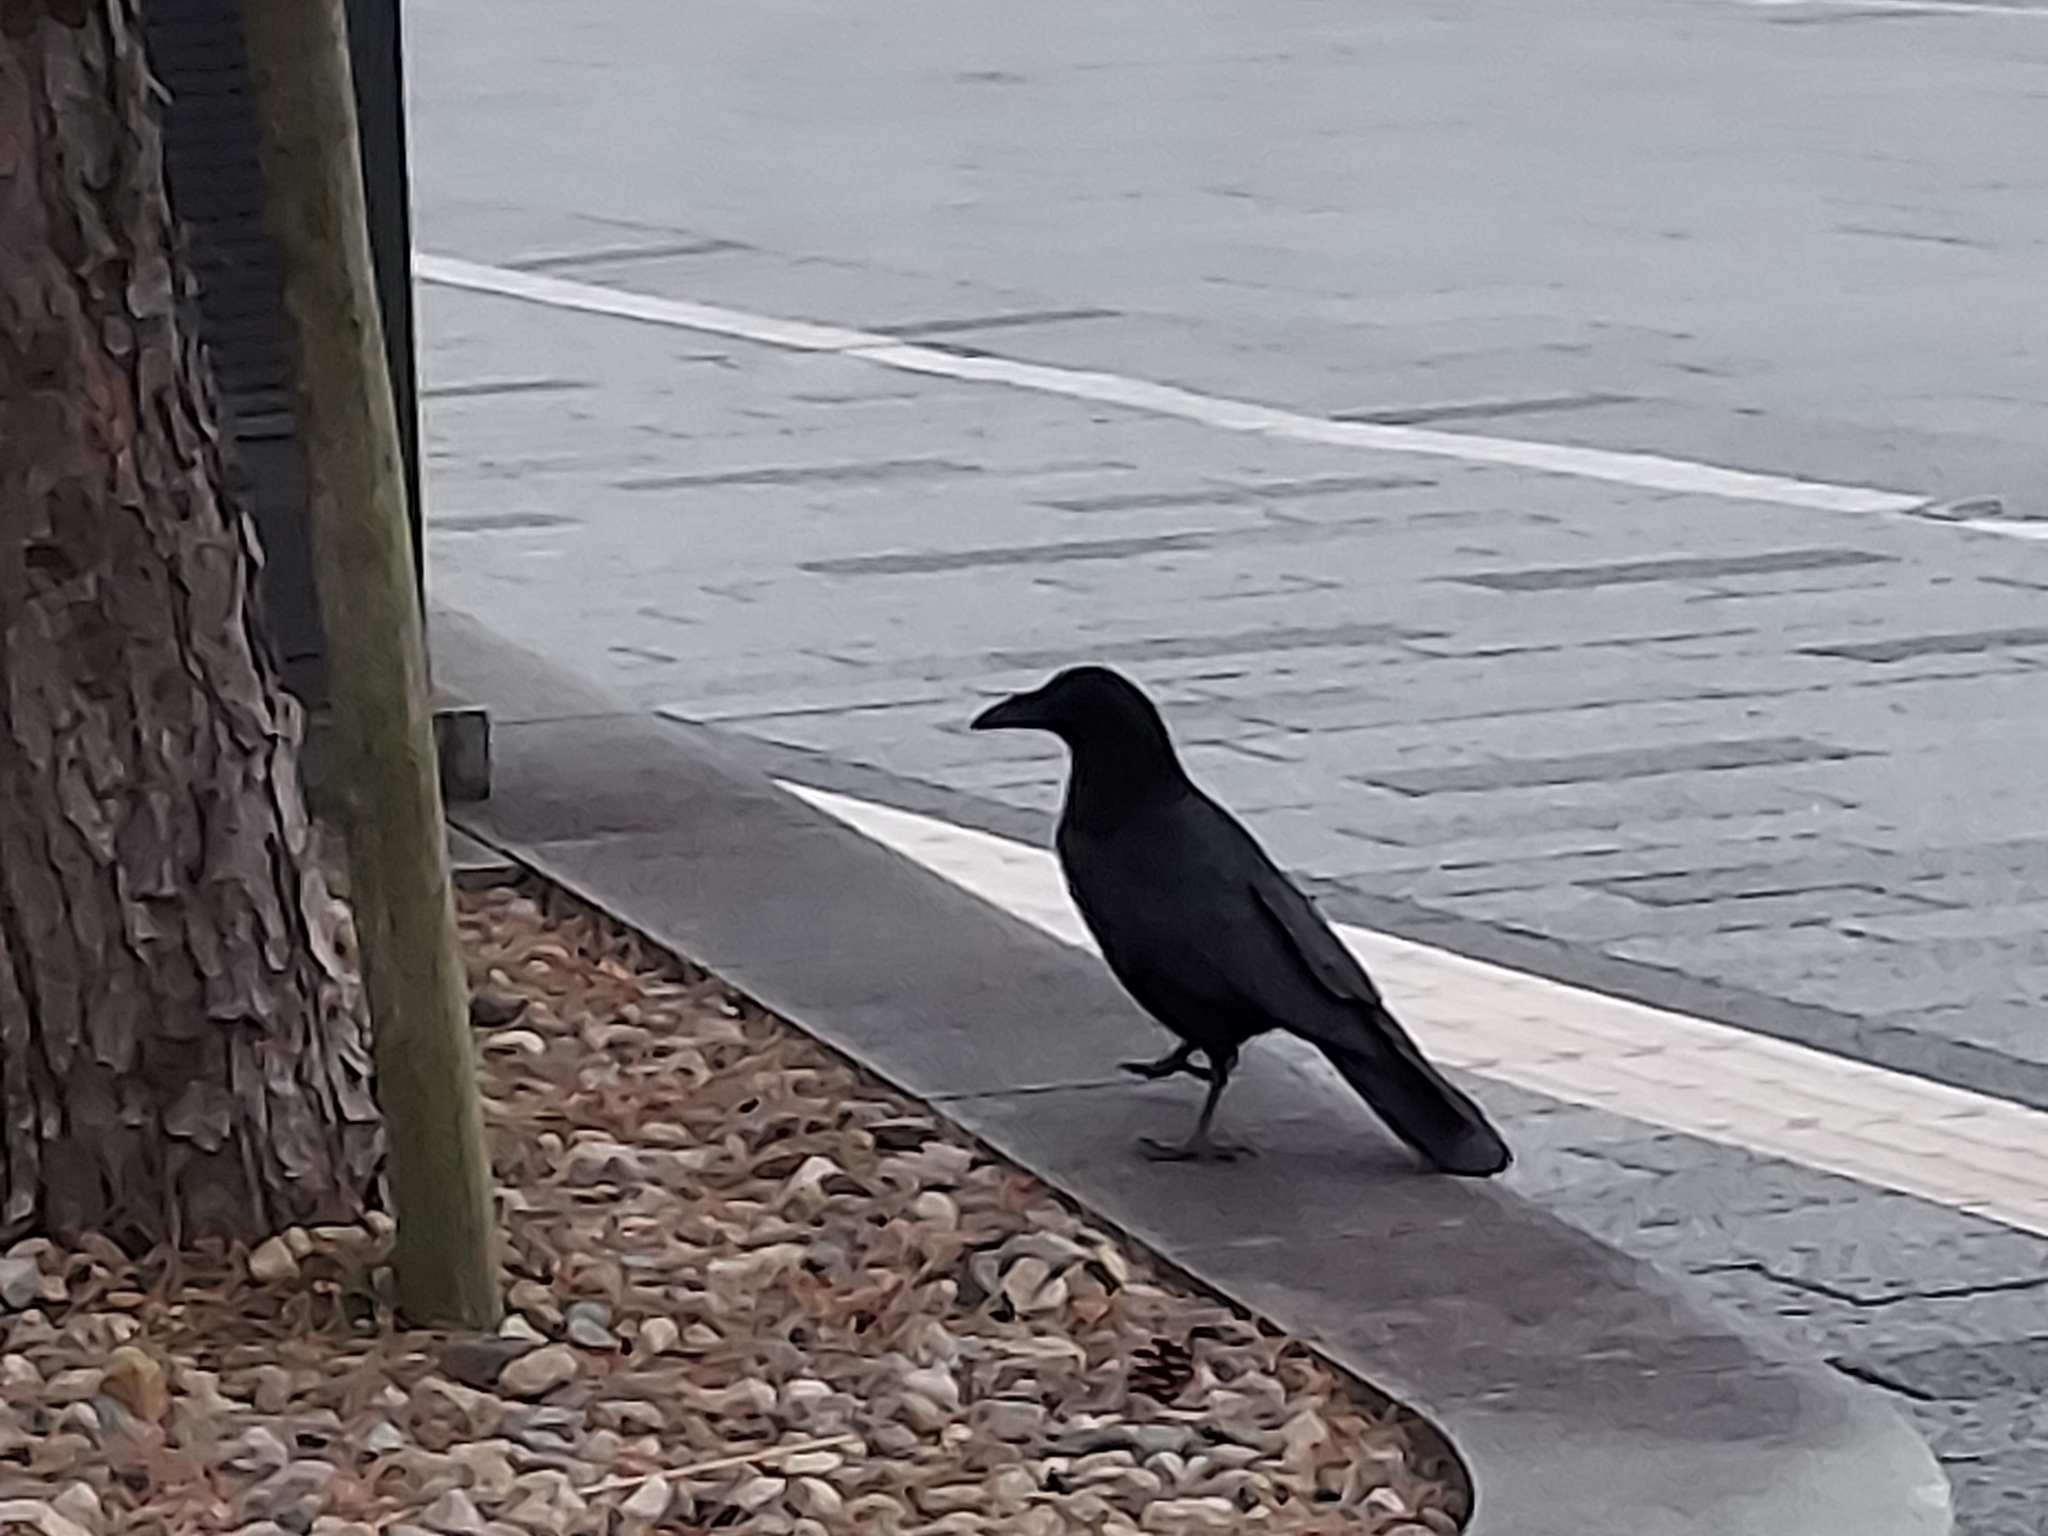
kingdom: Animalia
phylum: Chordata
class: Aves
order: Passeriformes
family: Corvidae
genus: Corvus
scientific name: Corvus corone
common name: Carrion crow
